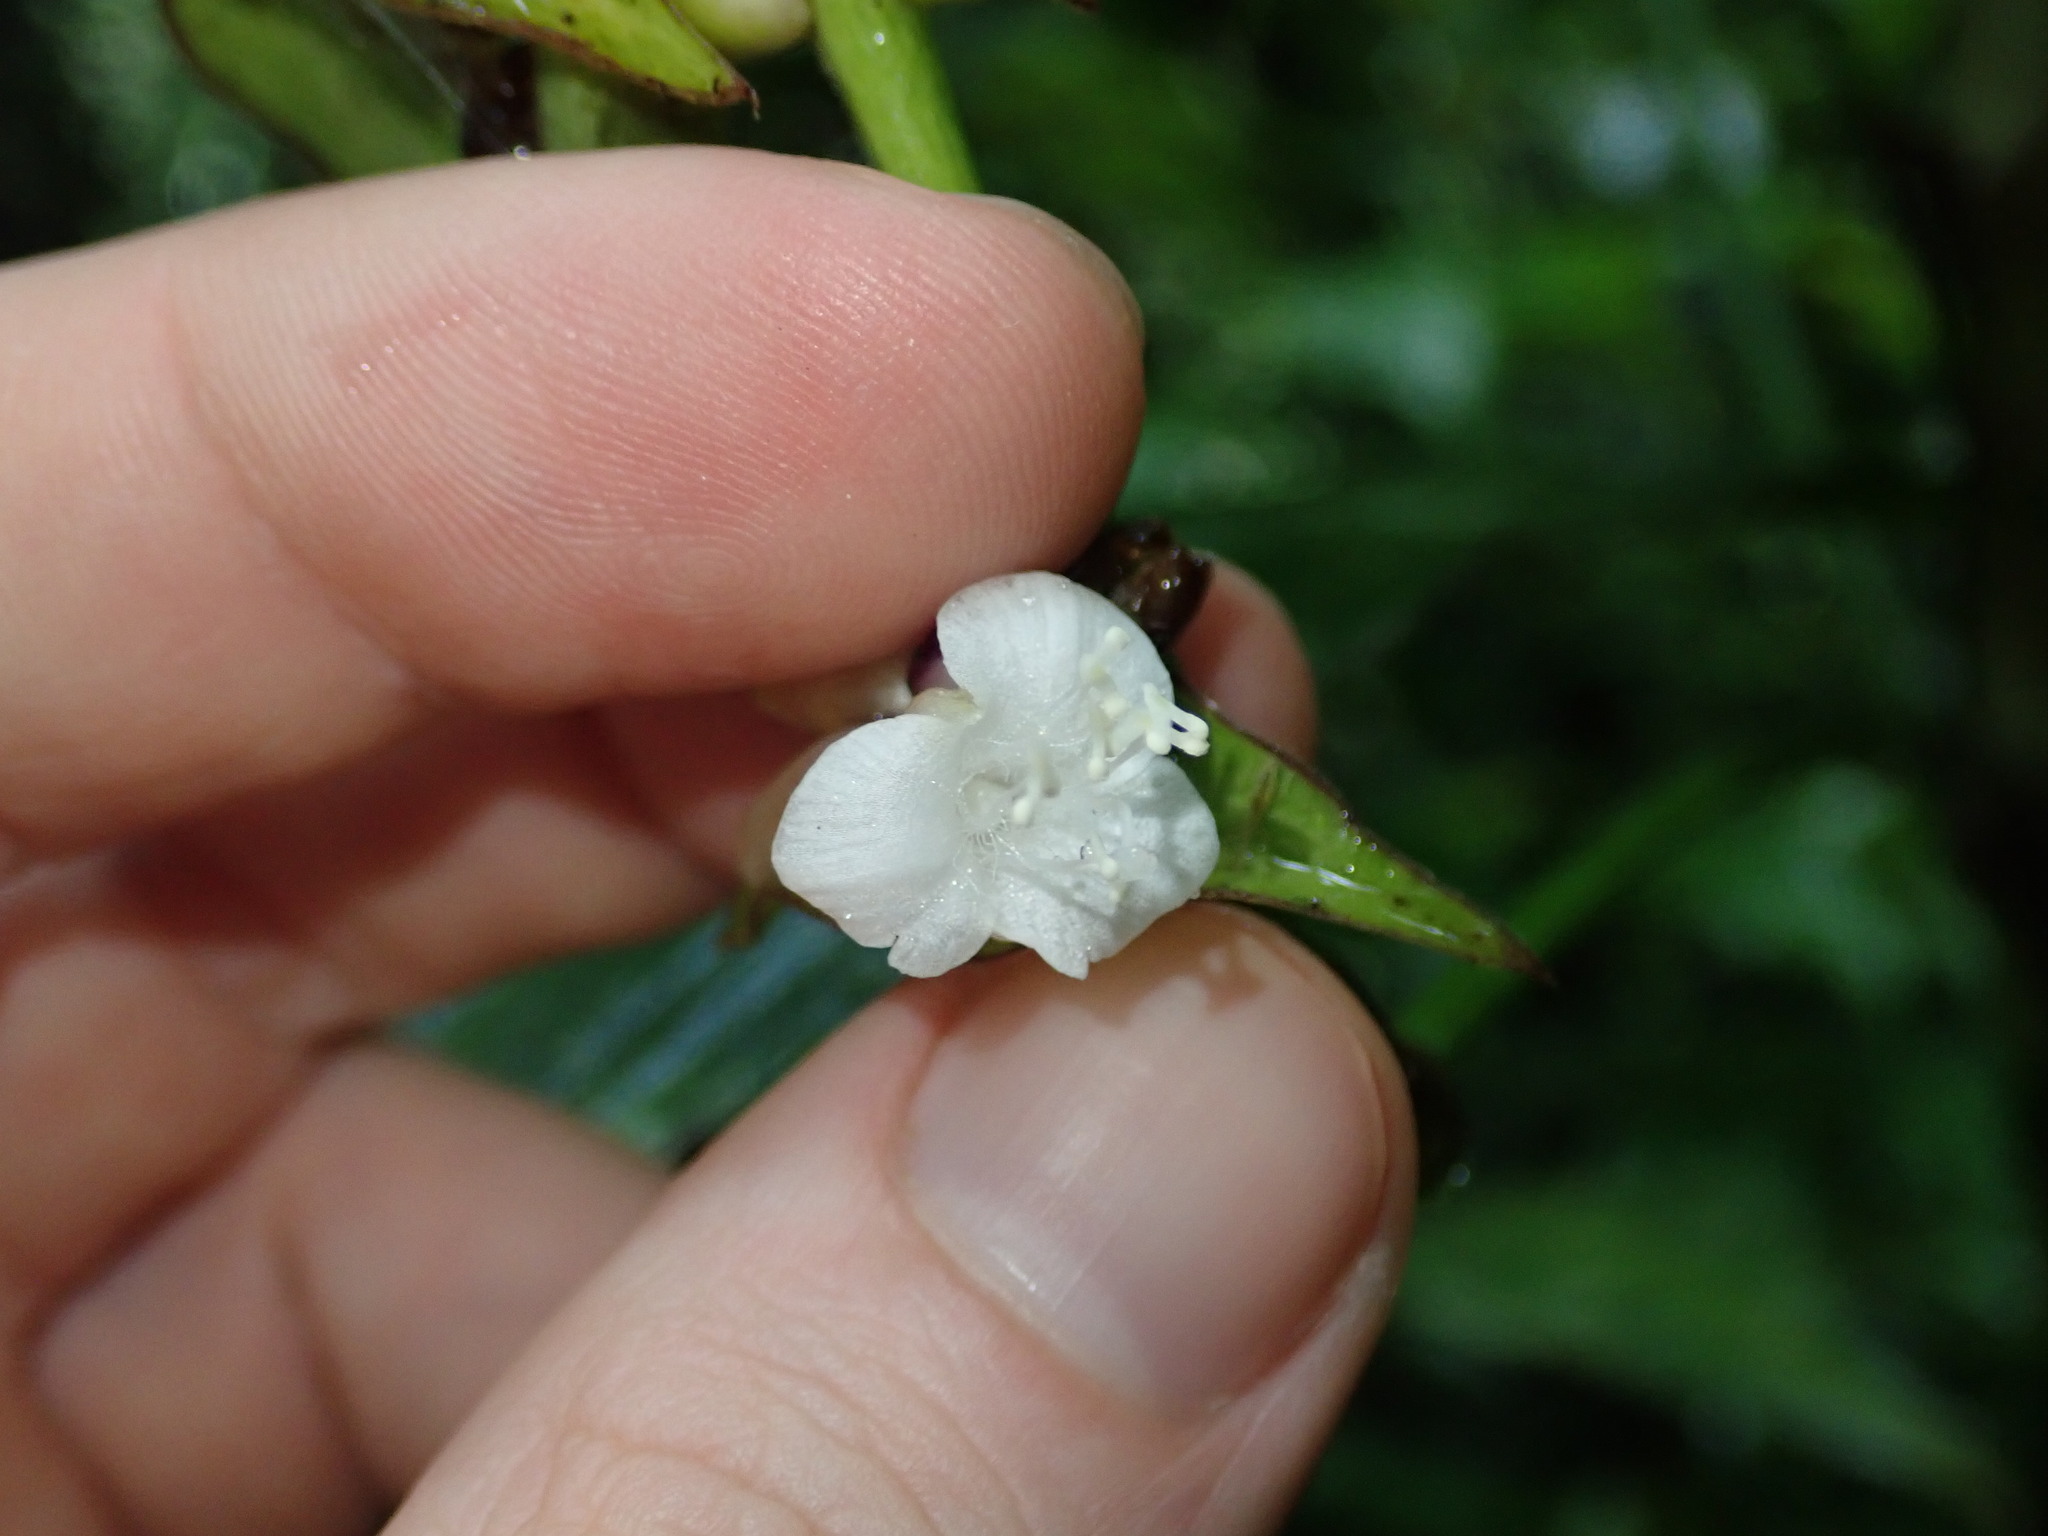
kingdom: Plantae
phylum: Tracheophyta
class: Liliopsida
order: Commelinales
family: Commelinaceae
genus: Tradescantia
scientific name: Tradescantia zanonia
